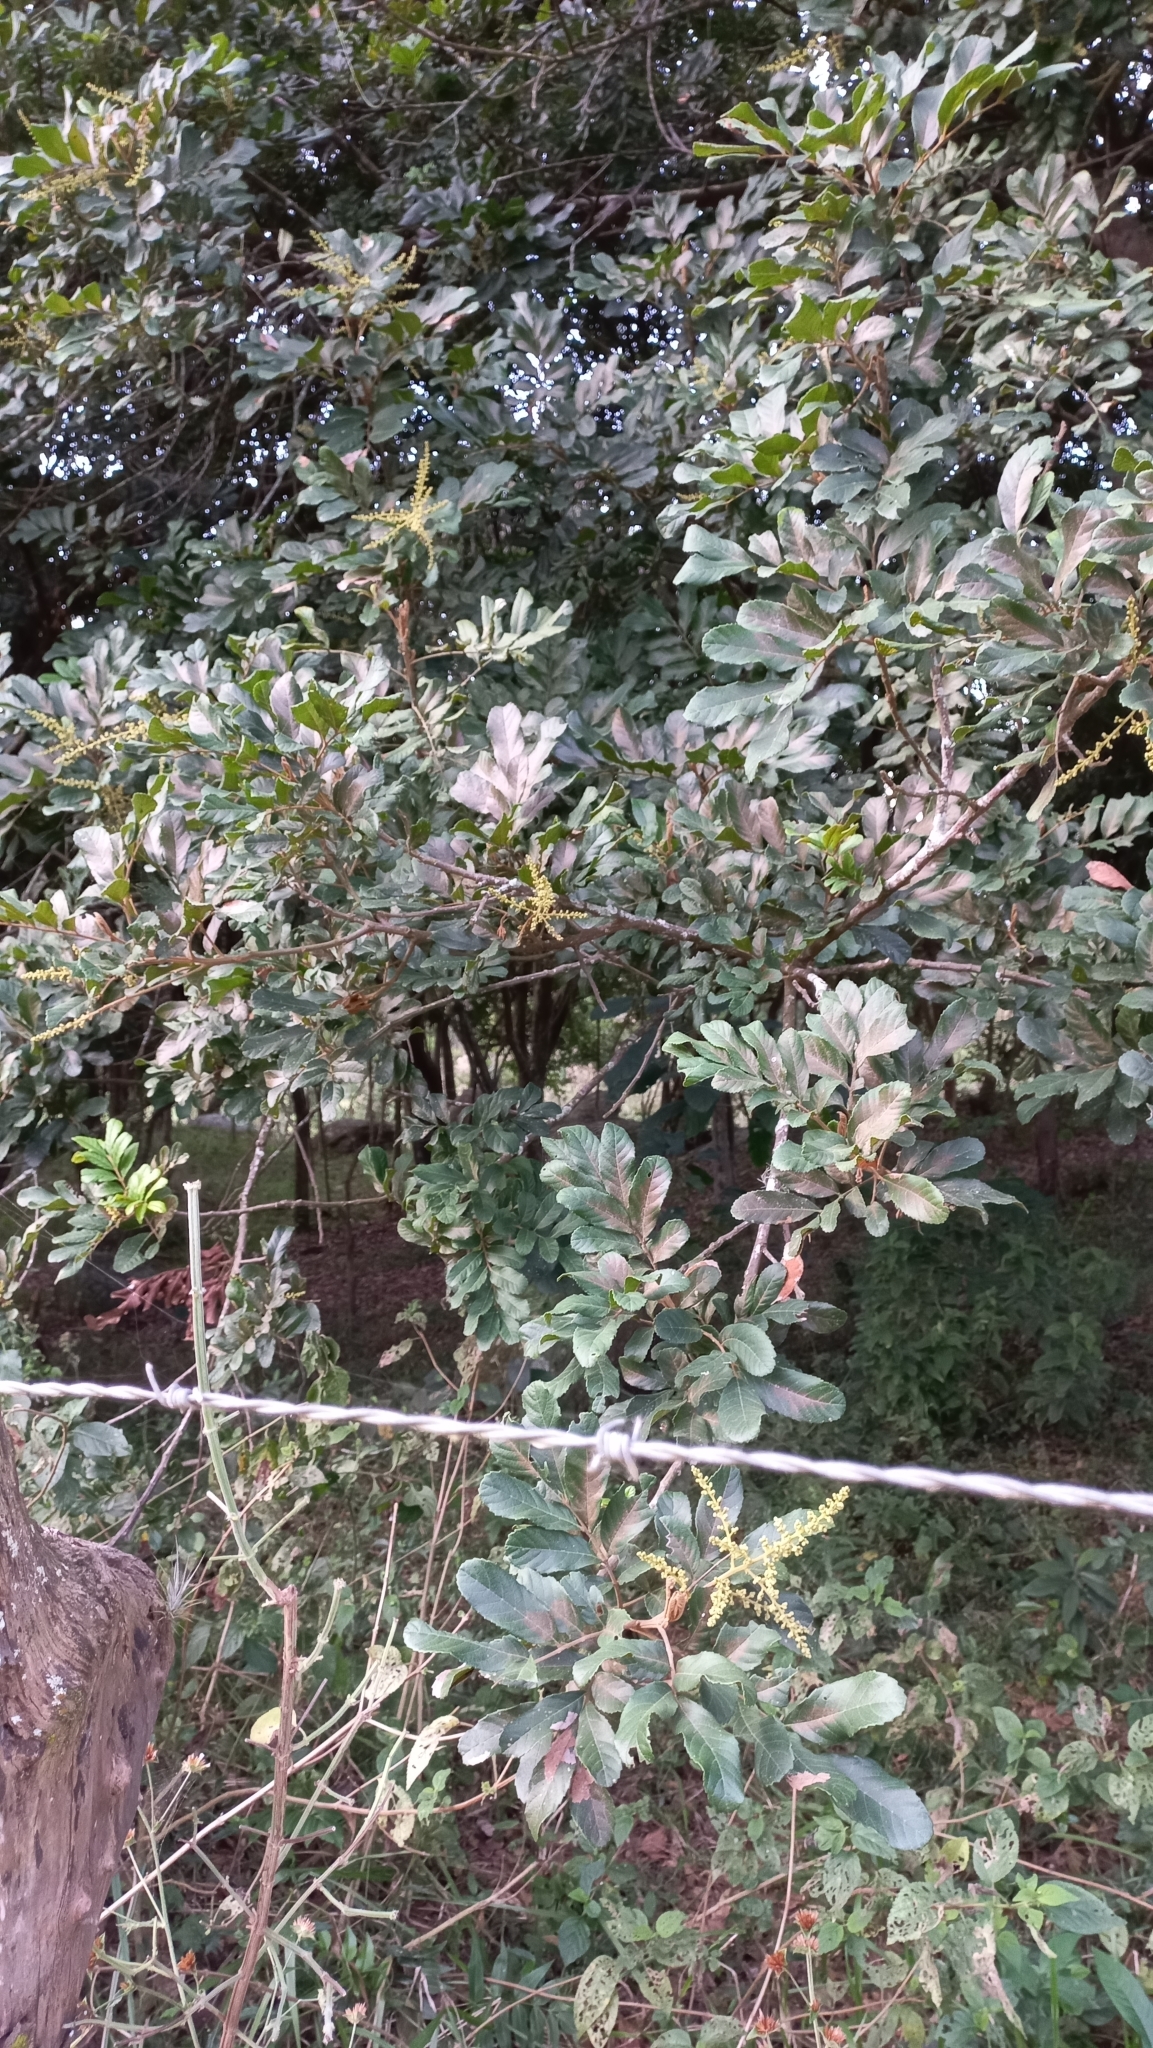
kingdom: Plantae
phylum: Tracheophyta
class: Magnoliopsida
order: Sapindales
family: Sapindaceae
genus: Cupania
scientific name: Cupania vernalis
